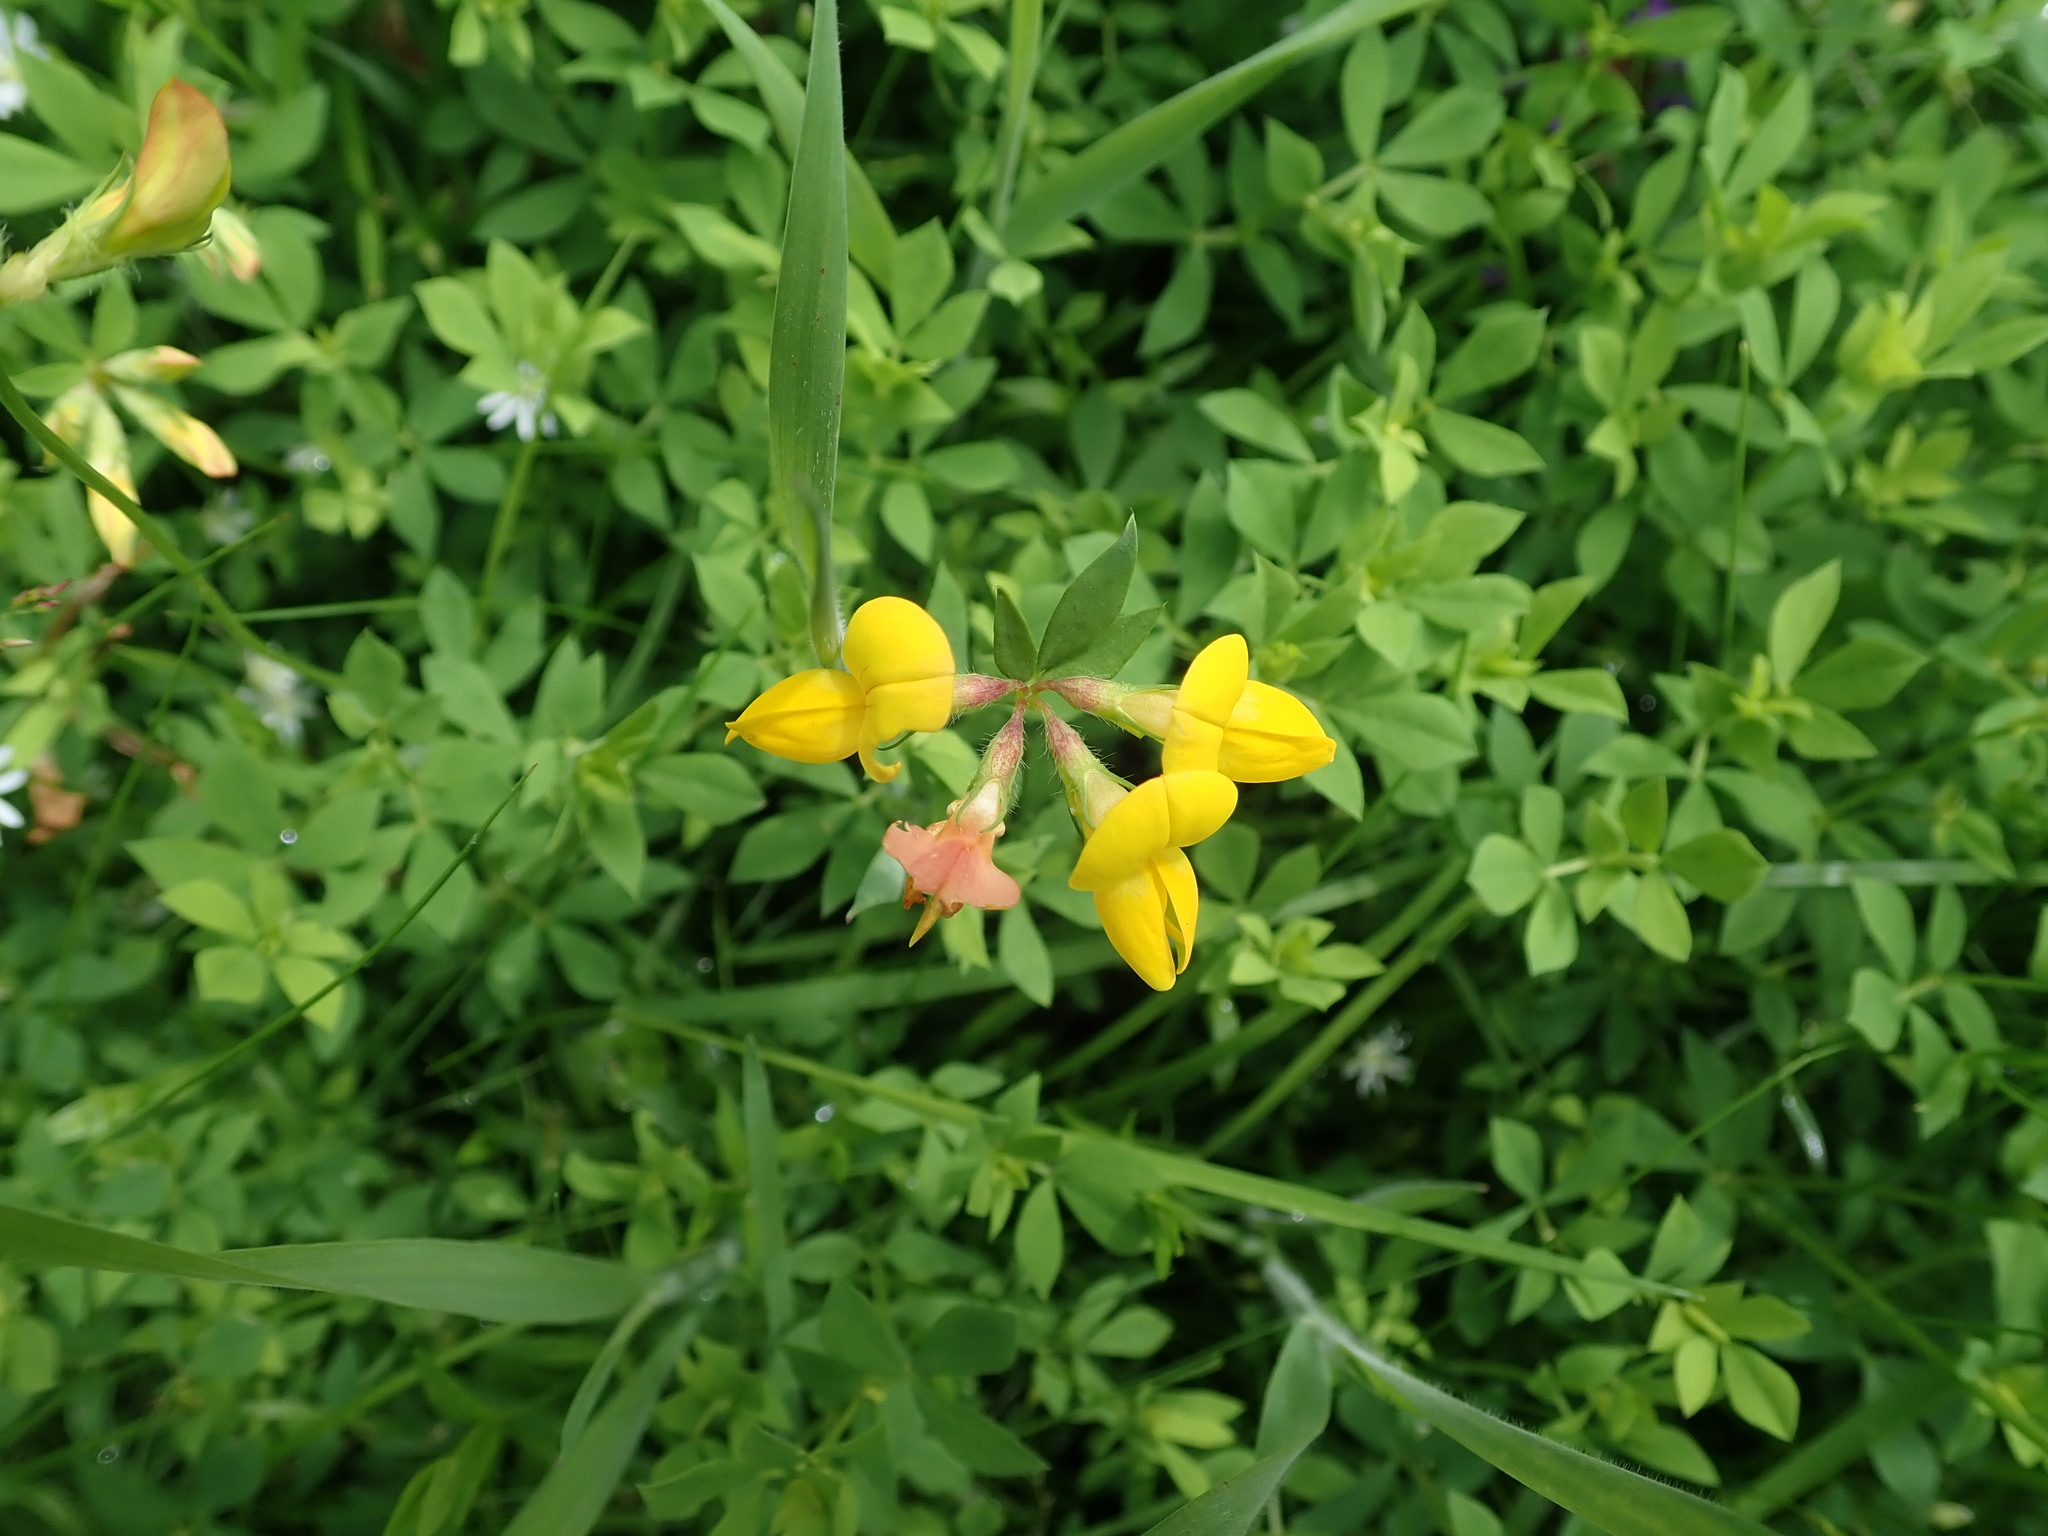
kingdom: Plantae
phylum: Tracheophyta
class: Magnoliopsida
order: Fabales
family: Fabaceae
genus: Lotus
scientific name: Lotus corniculatus
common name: Common bird's-foot-trefoil
